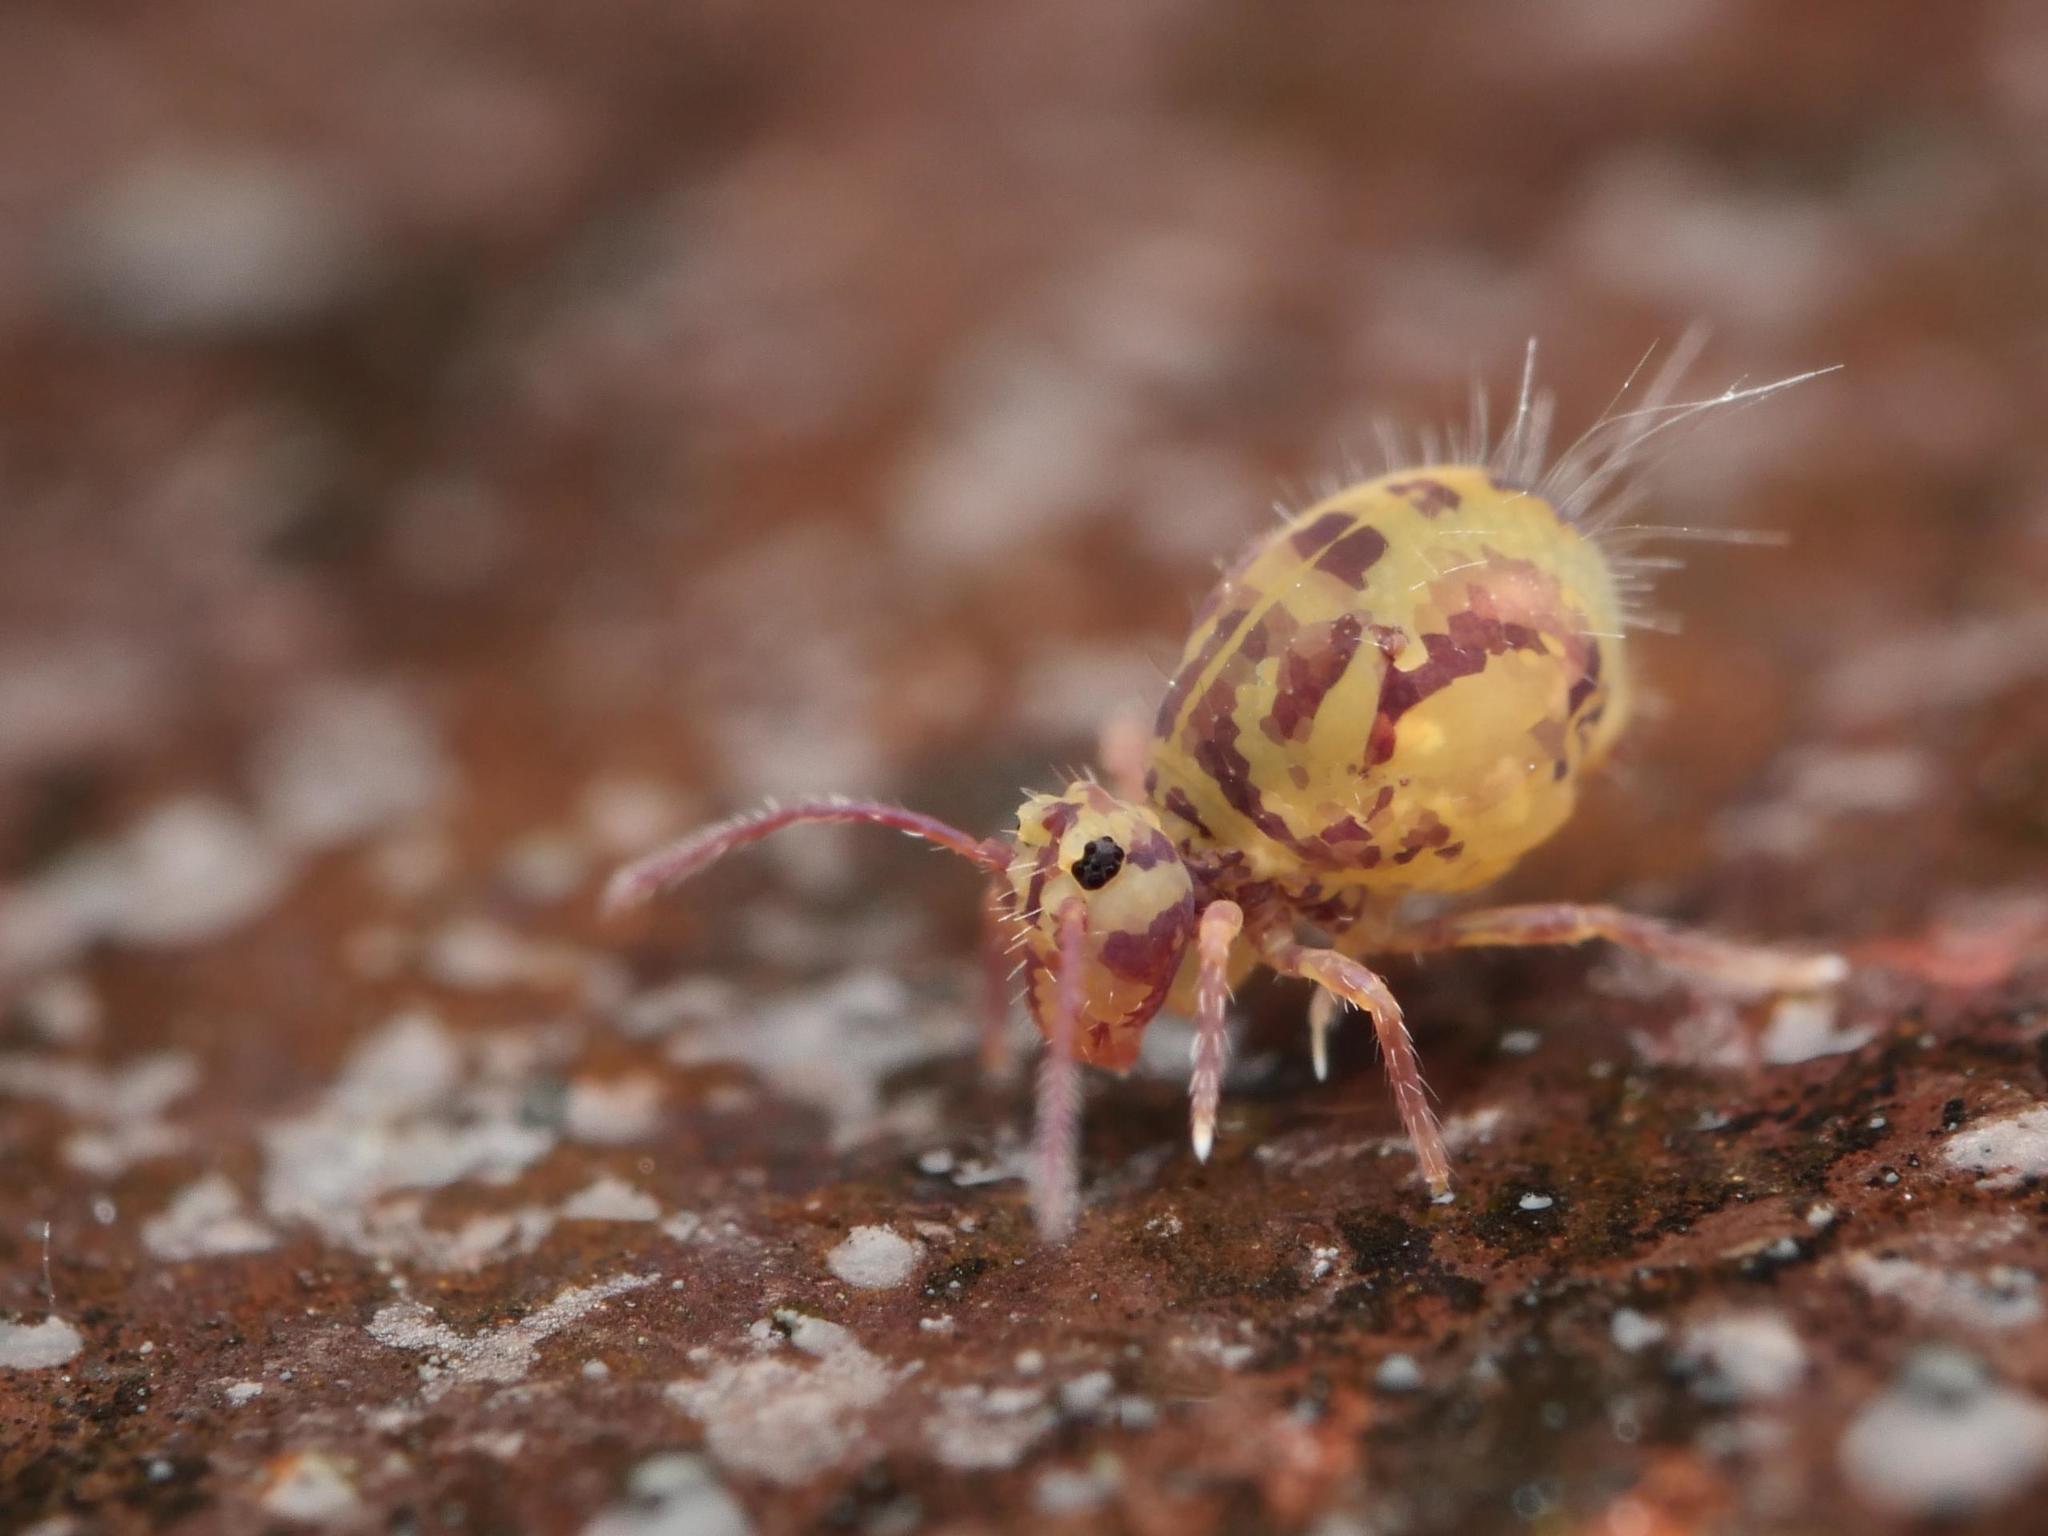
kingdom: Animalia
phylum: Arthropoda
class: Collembola
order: Symphypleona
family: Dicyrtomidae
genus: Dicyrtomina
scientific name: Dicyrtomina ornata
